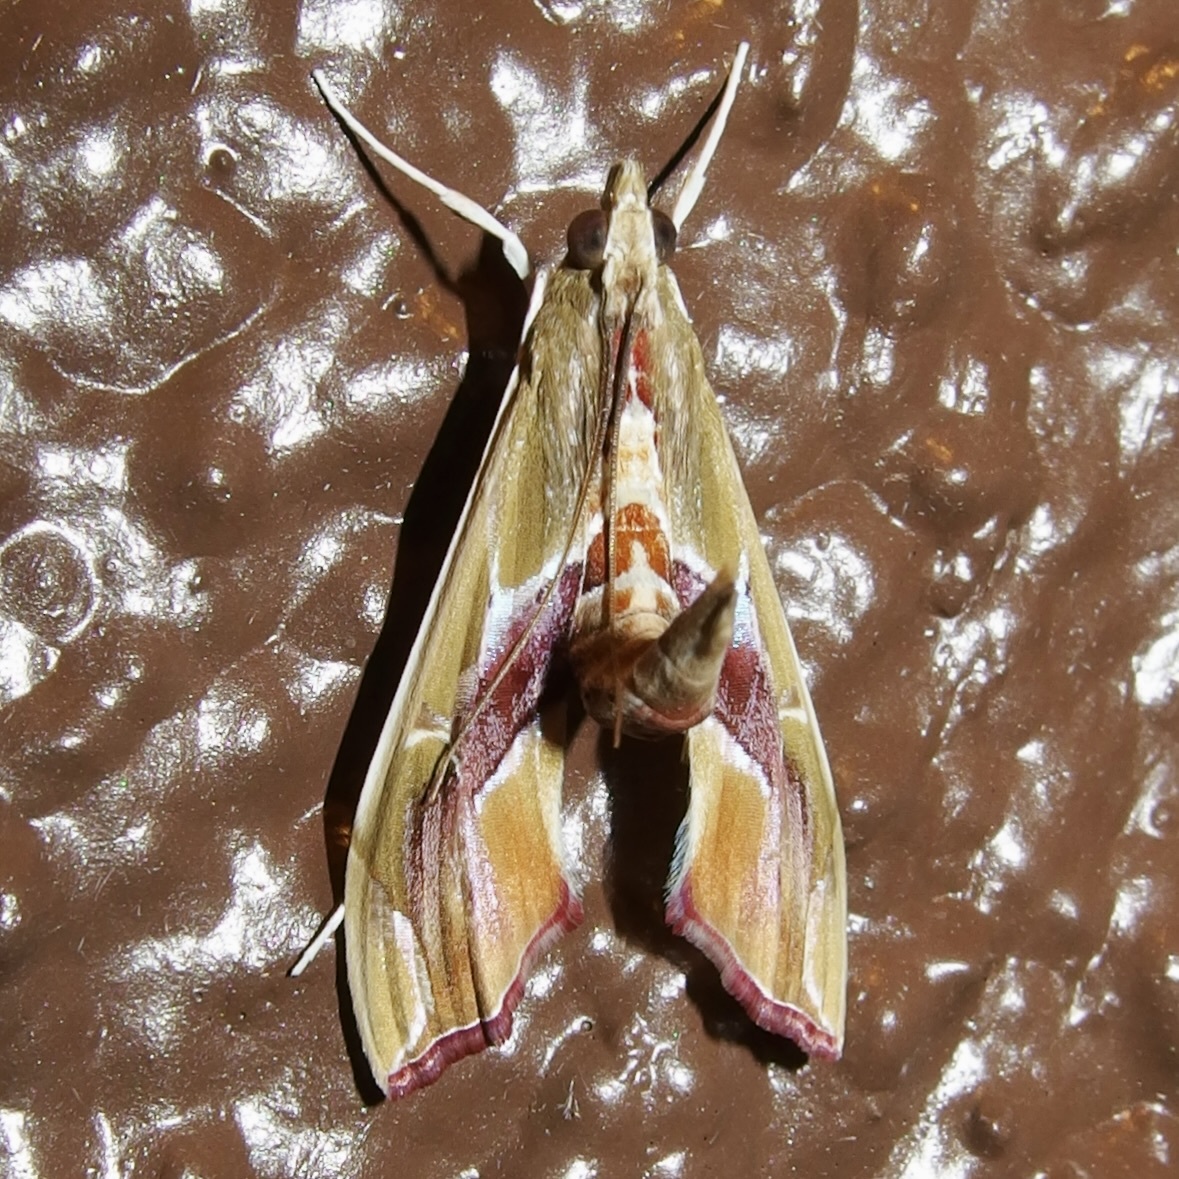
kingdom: Animalia
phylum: Arthropoda
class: Insecta
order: Lepidoptera
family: Crambidae
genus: Agathodes
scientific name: Agathodes monstralis
